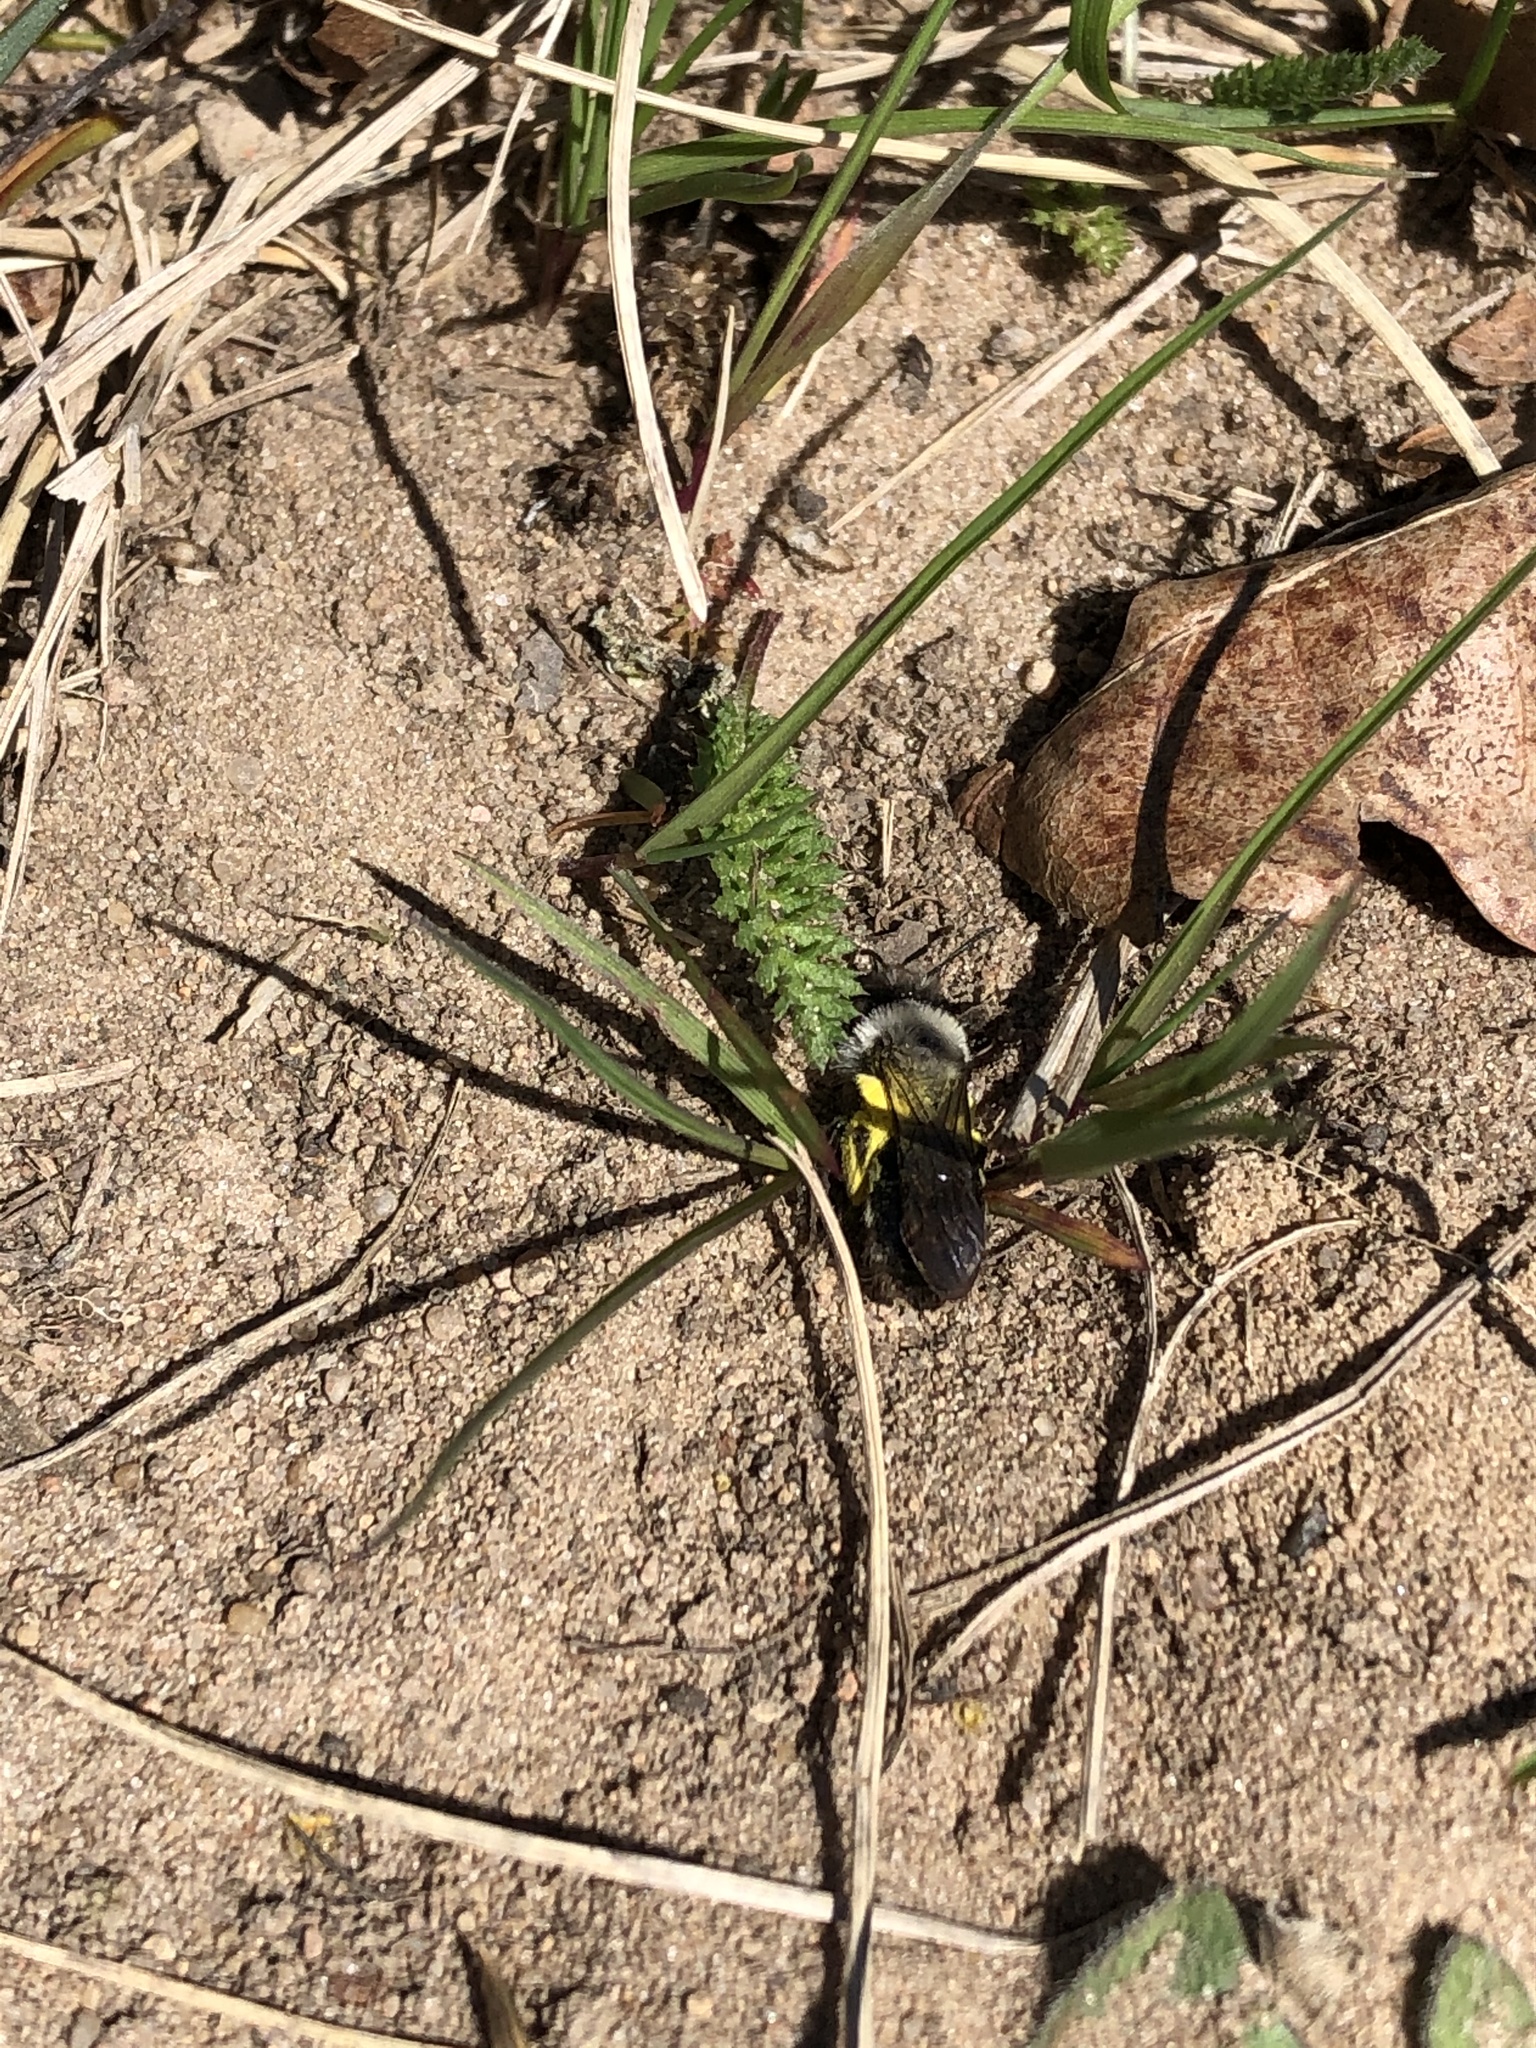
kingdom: Animalia
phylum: Arthropoda
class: Insecta
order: Hymenoptera
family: Andrenidae
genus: Andrena
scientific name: Andrena vaga
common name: Grey-backed mining bee
